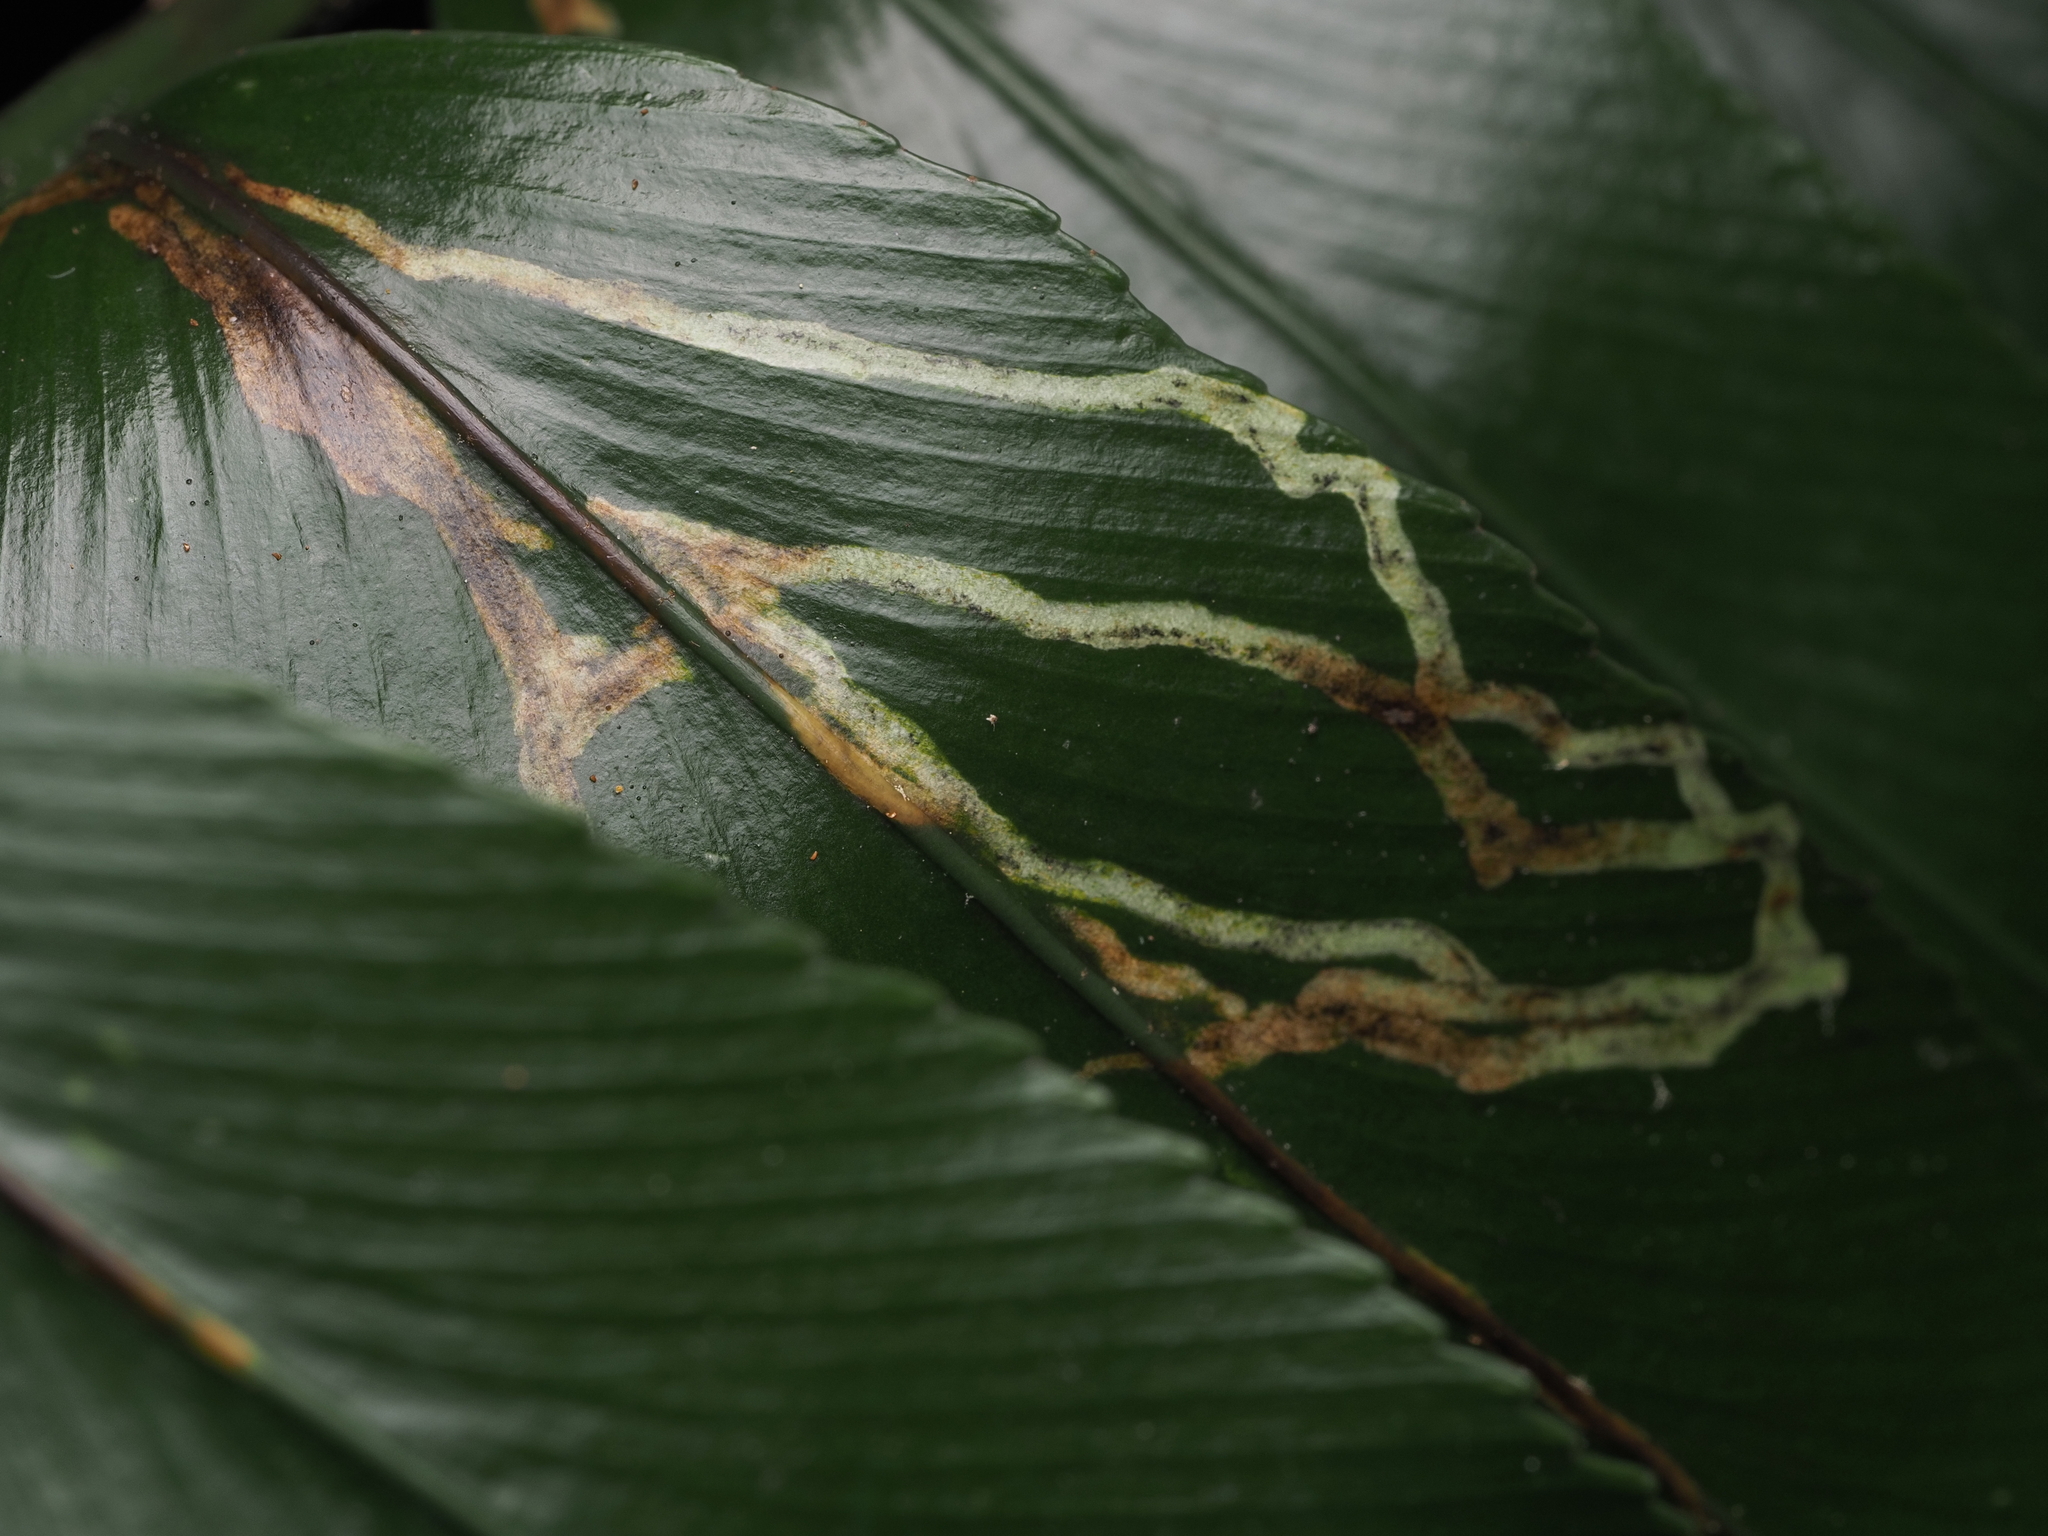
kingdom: Animalia
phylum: Arthropoda
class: Insecta
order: Diptera
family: Agromyzidae
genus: Phytoliriomyza
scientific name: Phytoliriomyza flavopleura
